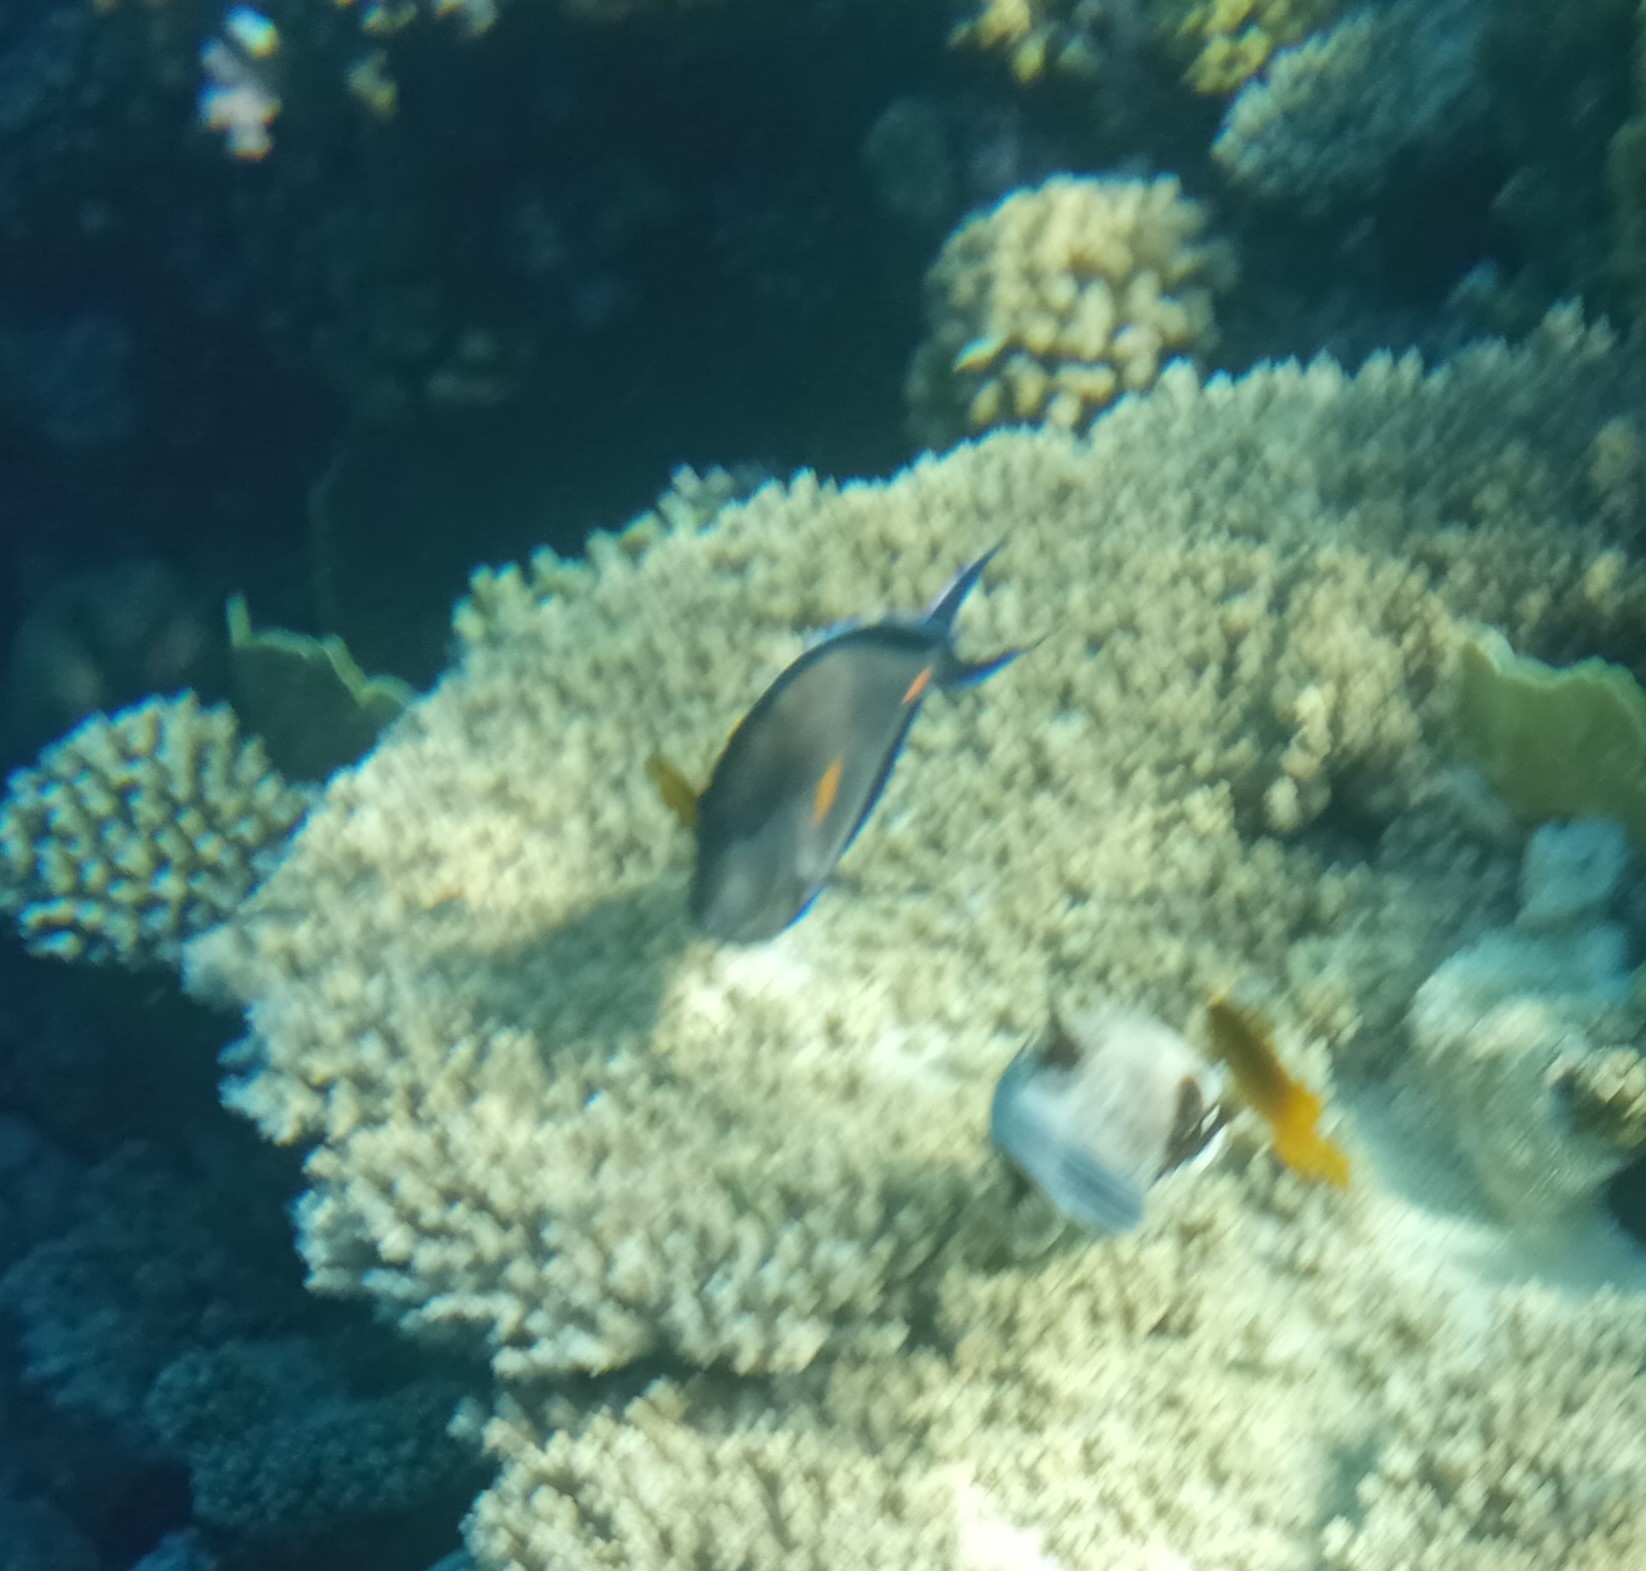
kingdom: Animalia
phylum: Chordata
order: Perciformes
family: Acanthuridae
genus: Acanthurus
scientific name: Acanthurus sohal
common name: Red sea surgeonfish
